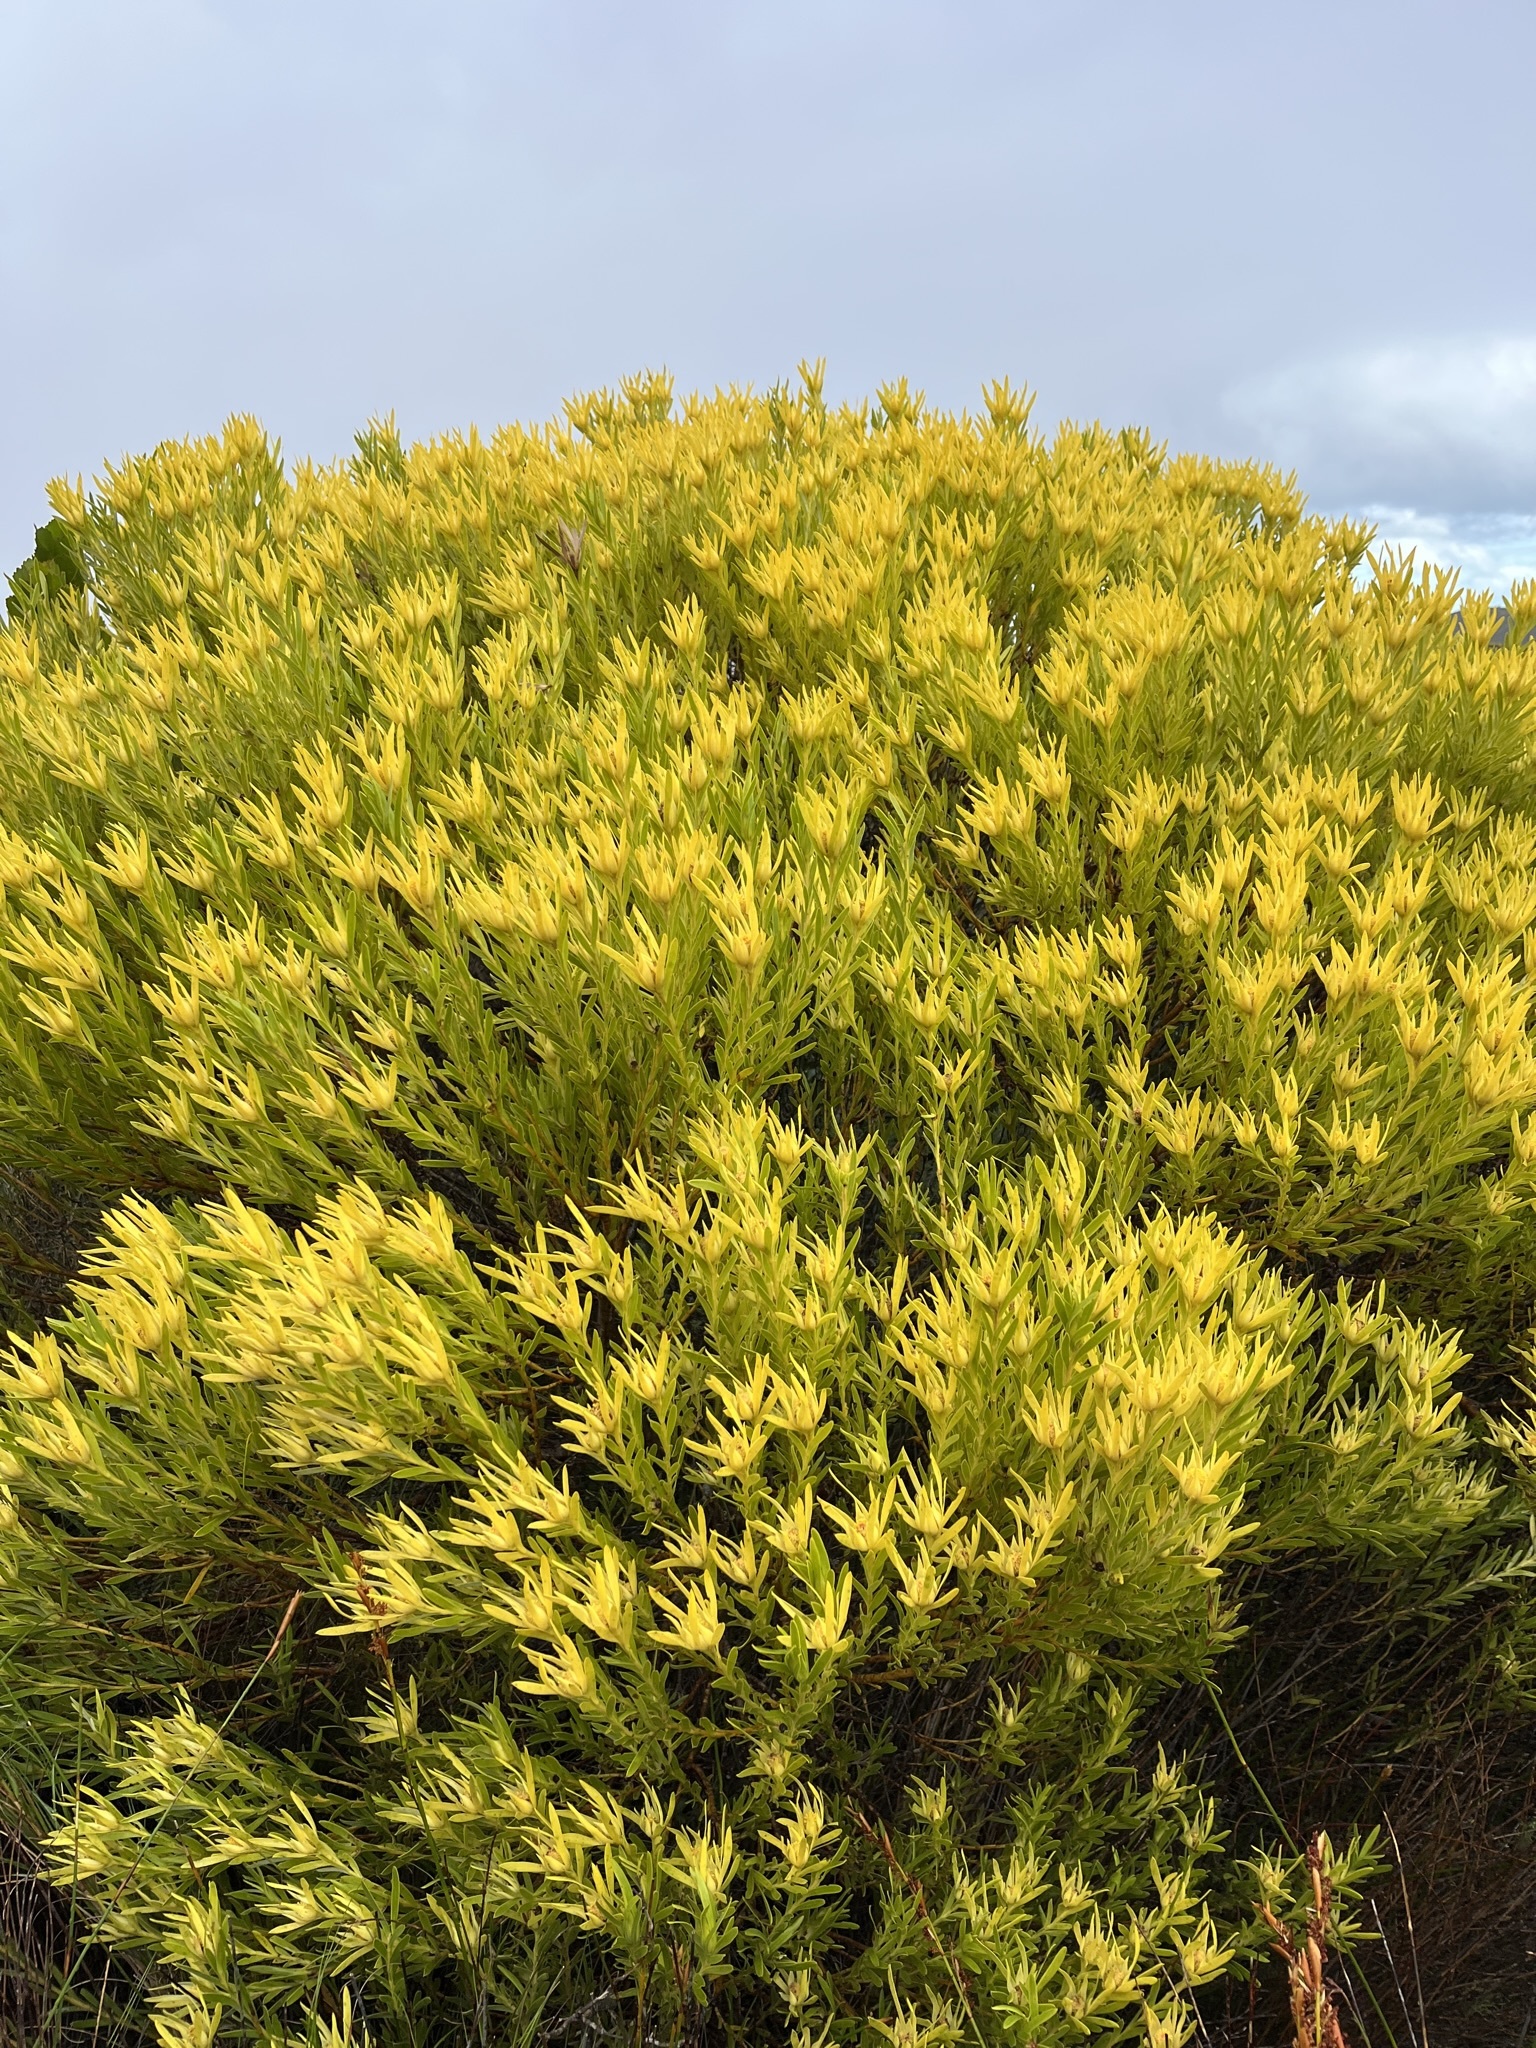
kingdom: Plantae
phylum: Tracheophyta
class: Magnoliopsida
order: Proteales
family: Proteaceae
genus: Leucadendron
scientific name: Leucadendron meridianum
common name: Limestone conebush
